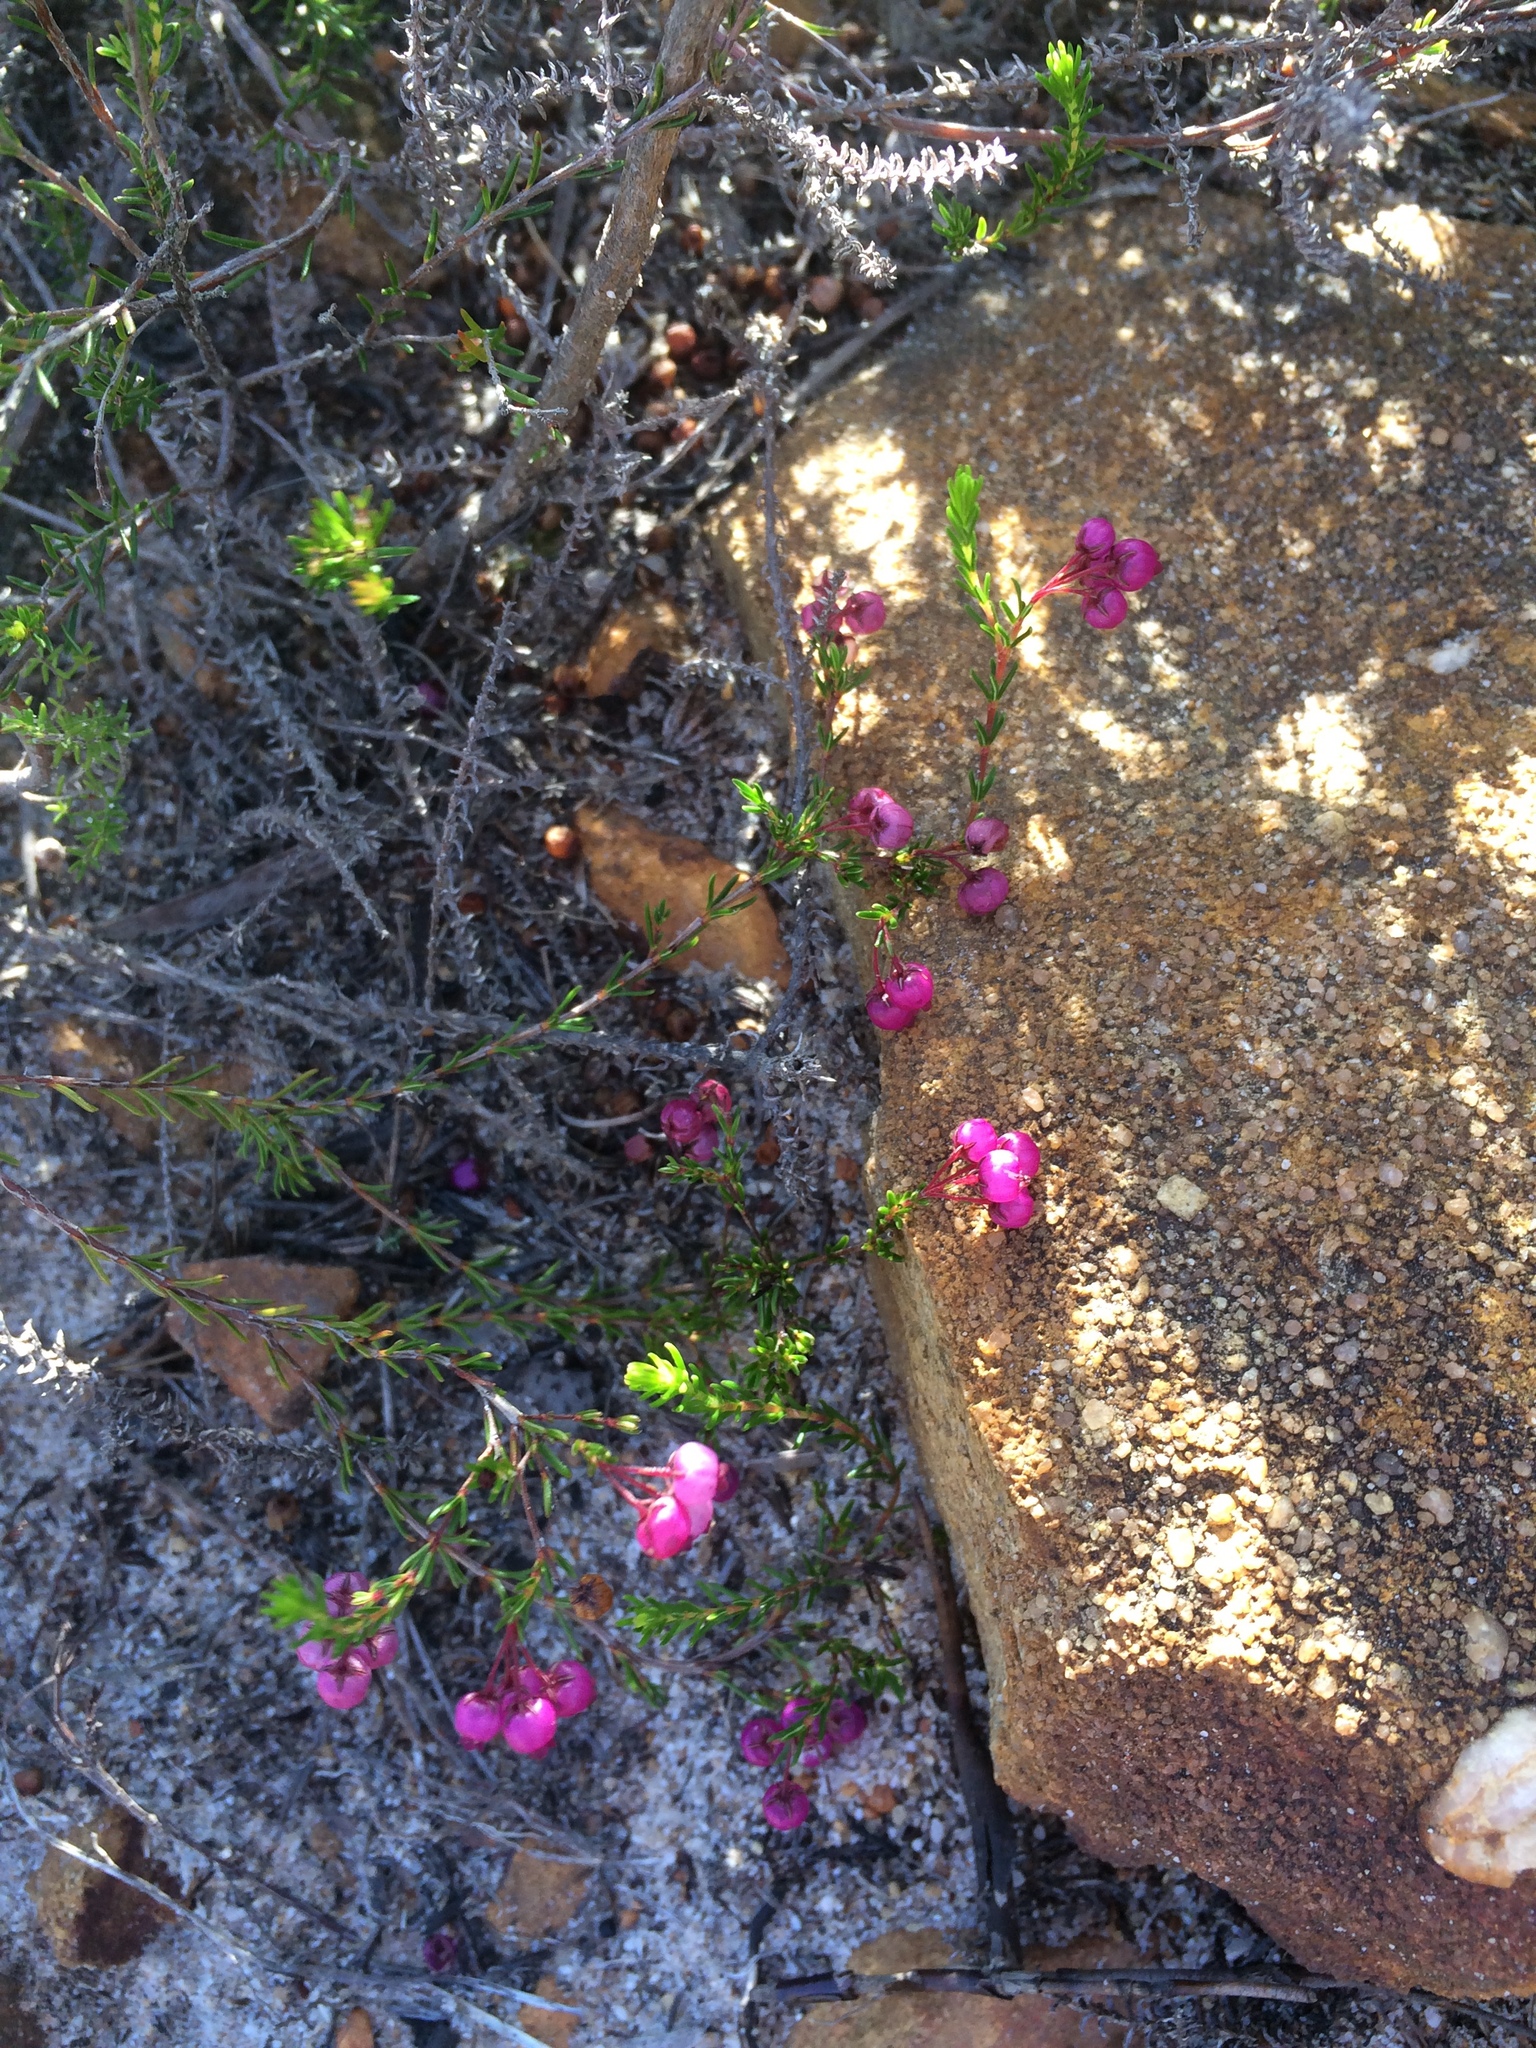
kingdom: Plantae
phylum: Tracheophyta
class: Magnoliopsida
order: Ericales
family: Ericaceae
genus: Erica
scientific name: Erica multumbellifera
